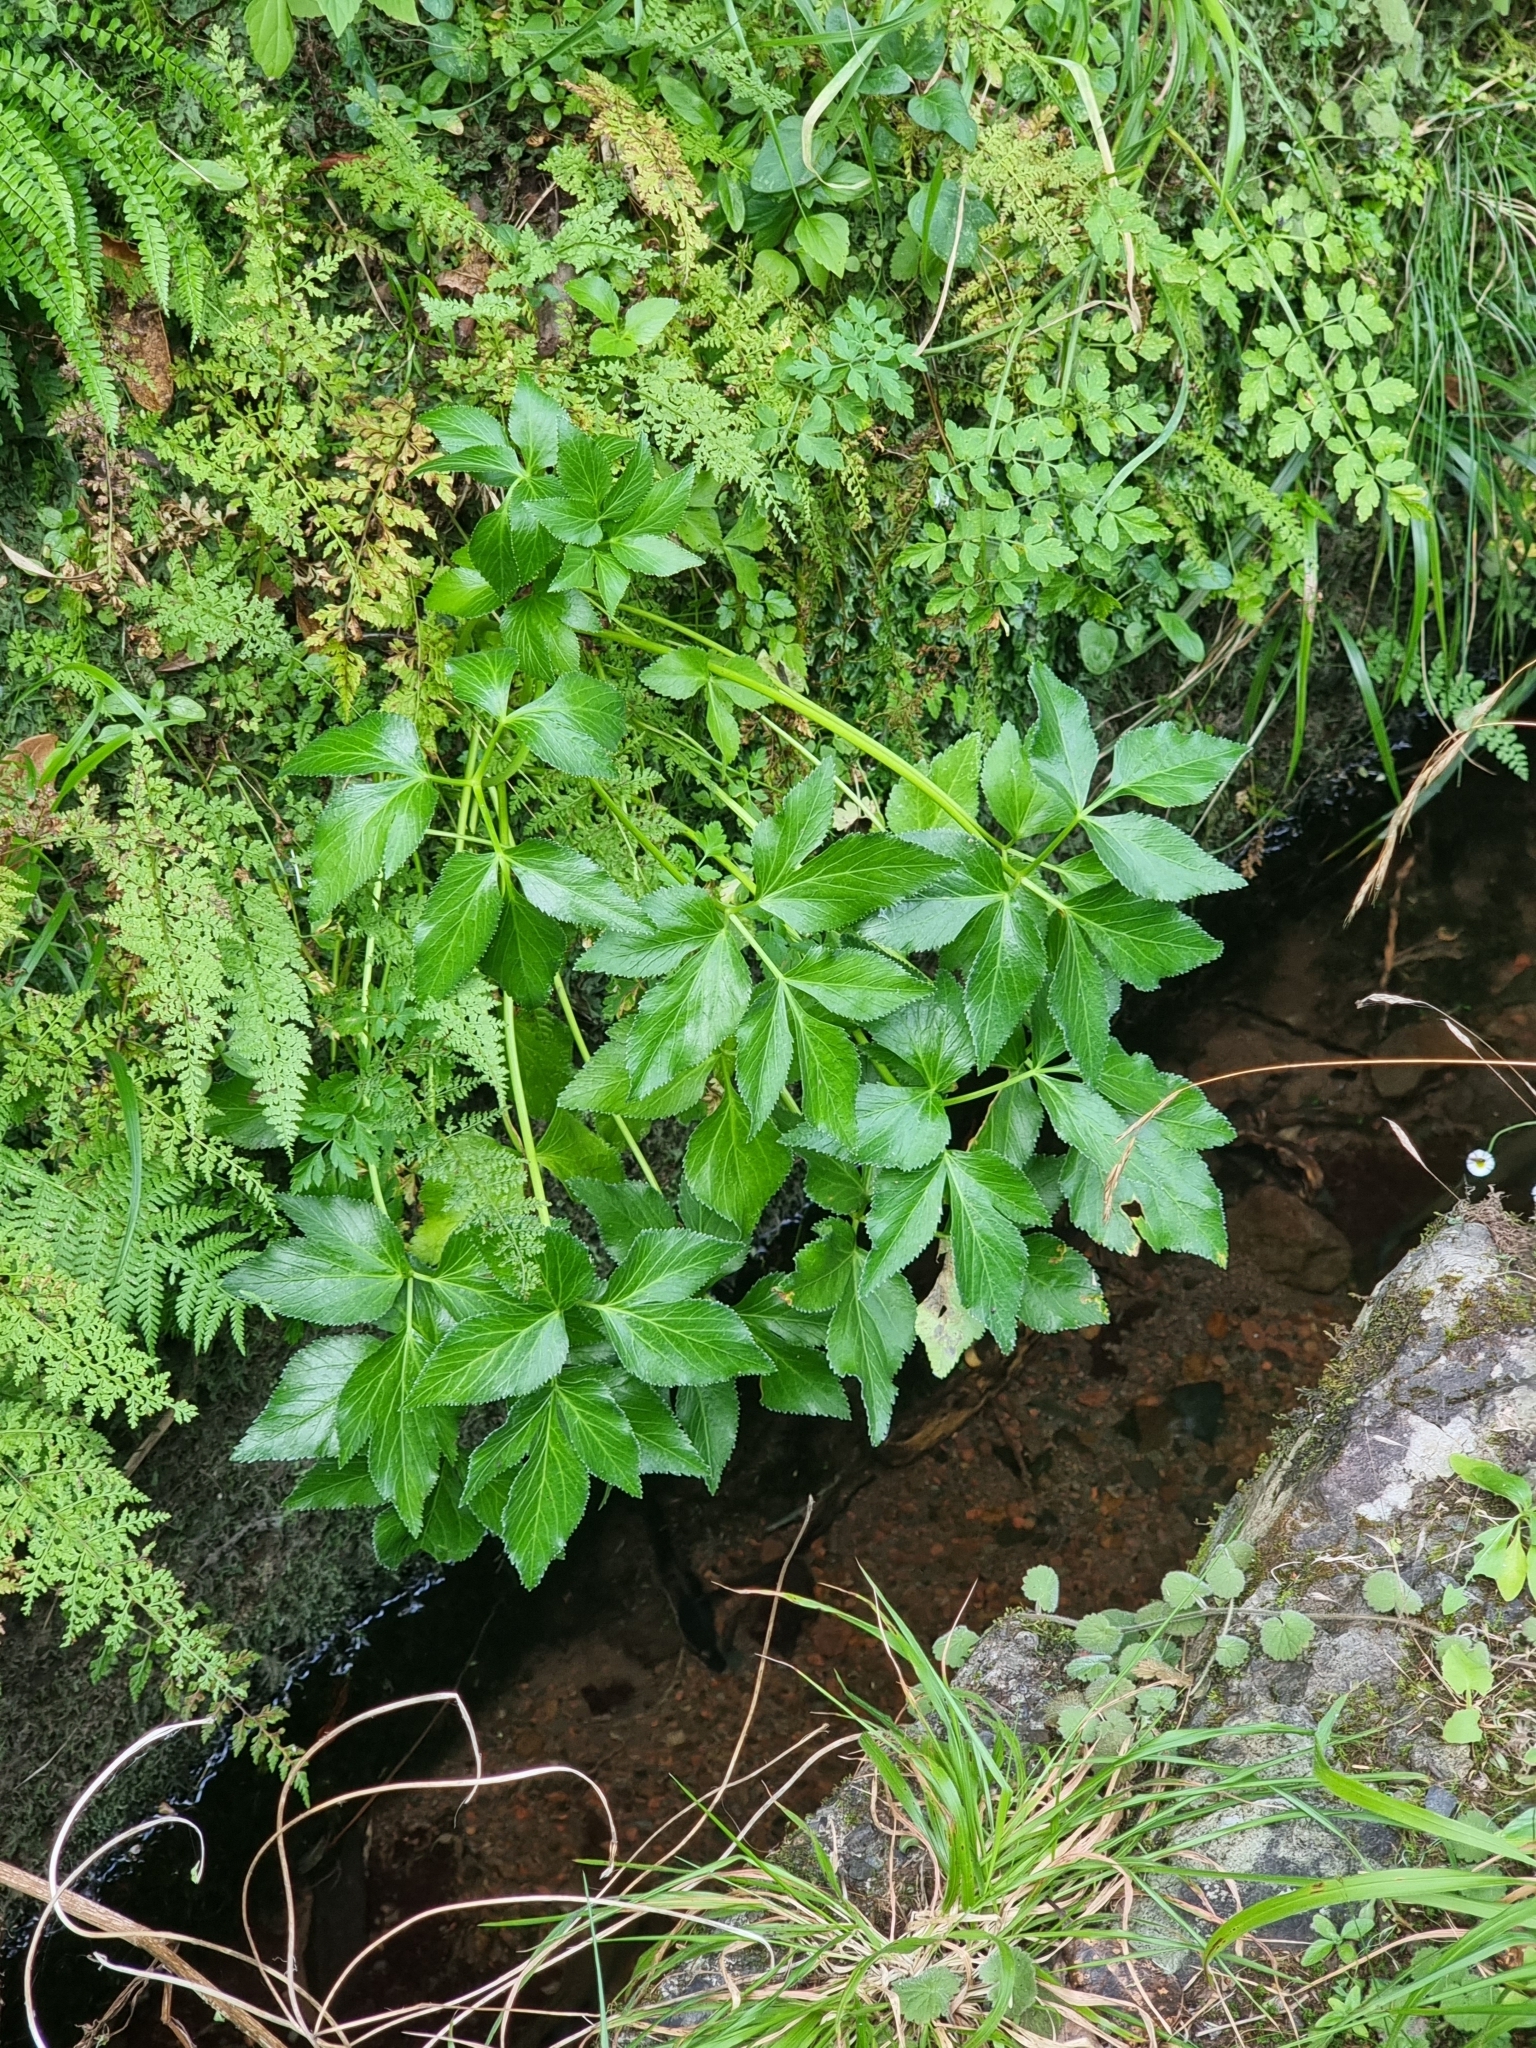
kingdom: Plantae
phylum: Tracheophyta
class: Magnoliopsida
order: Apiales
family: Apiaceae
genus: Imperatoria
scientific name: Imperatoria lowei
